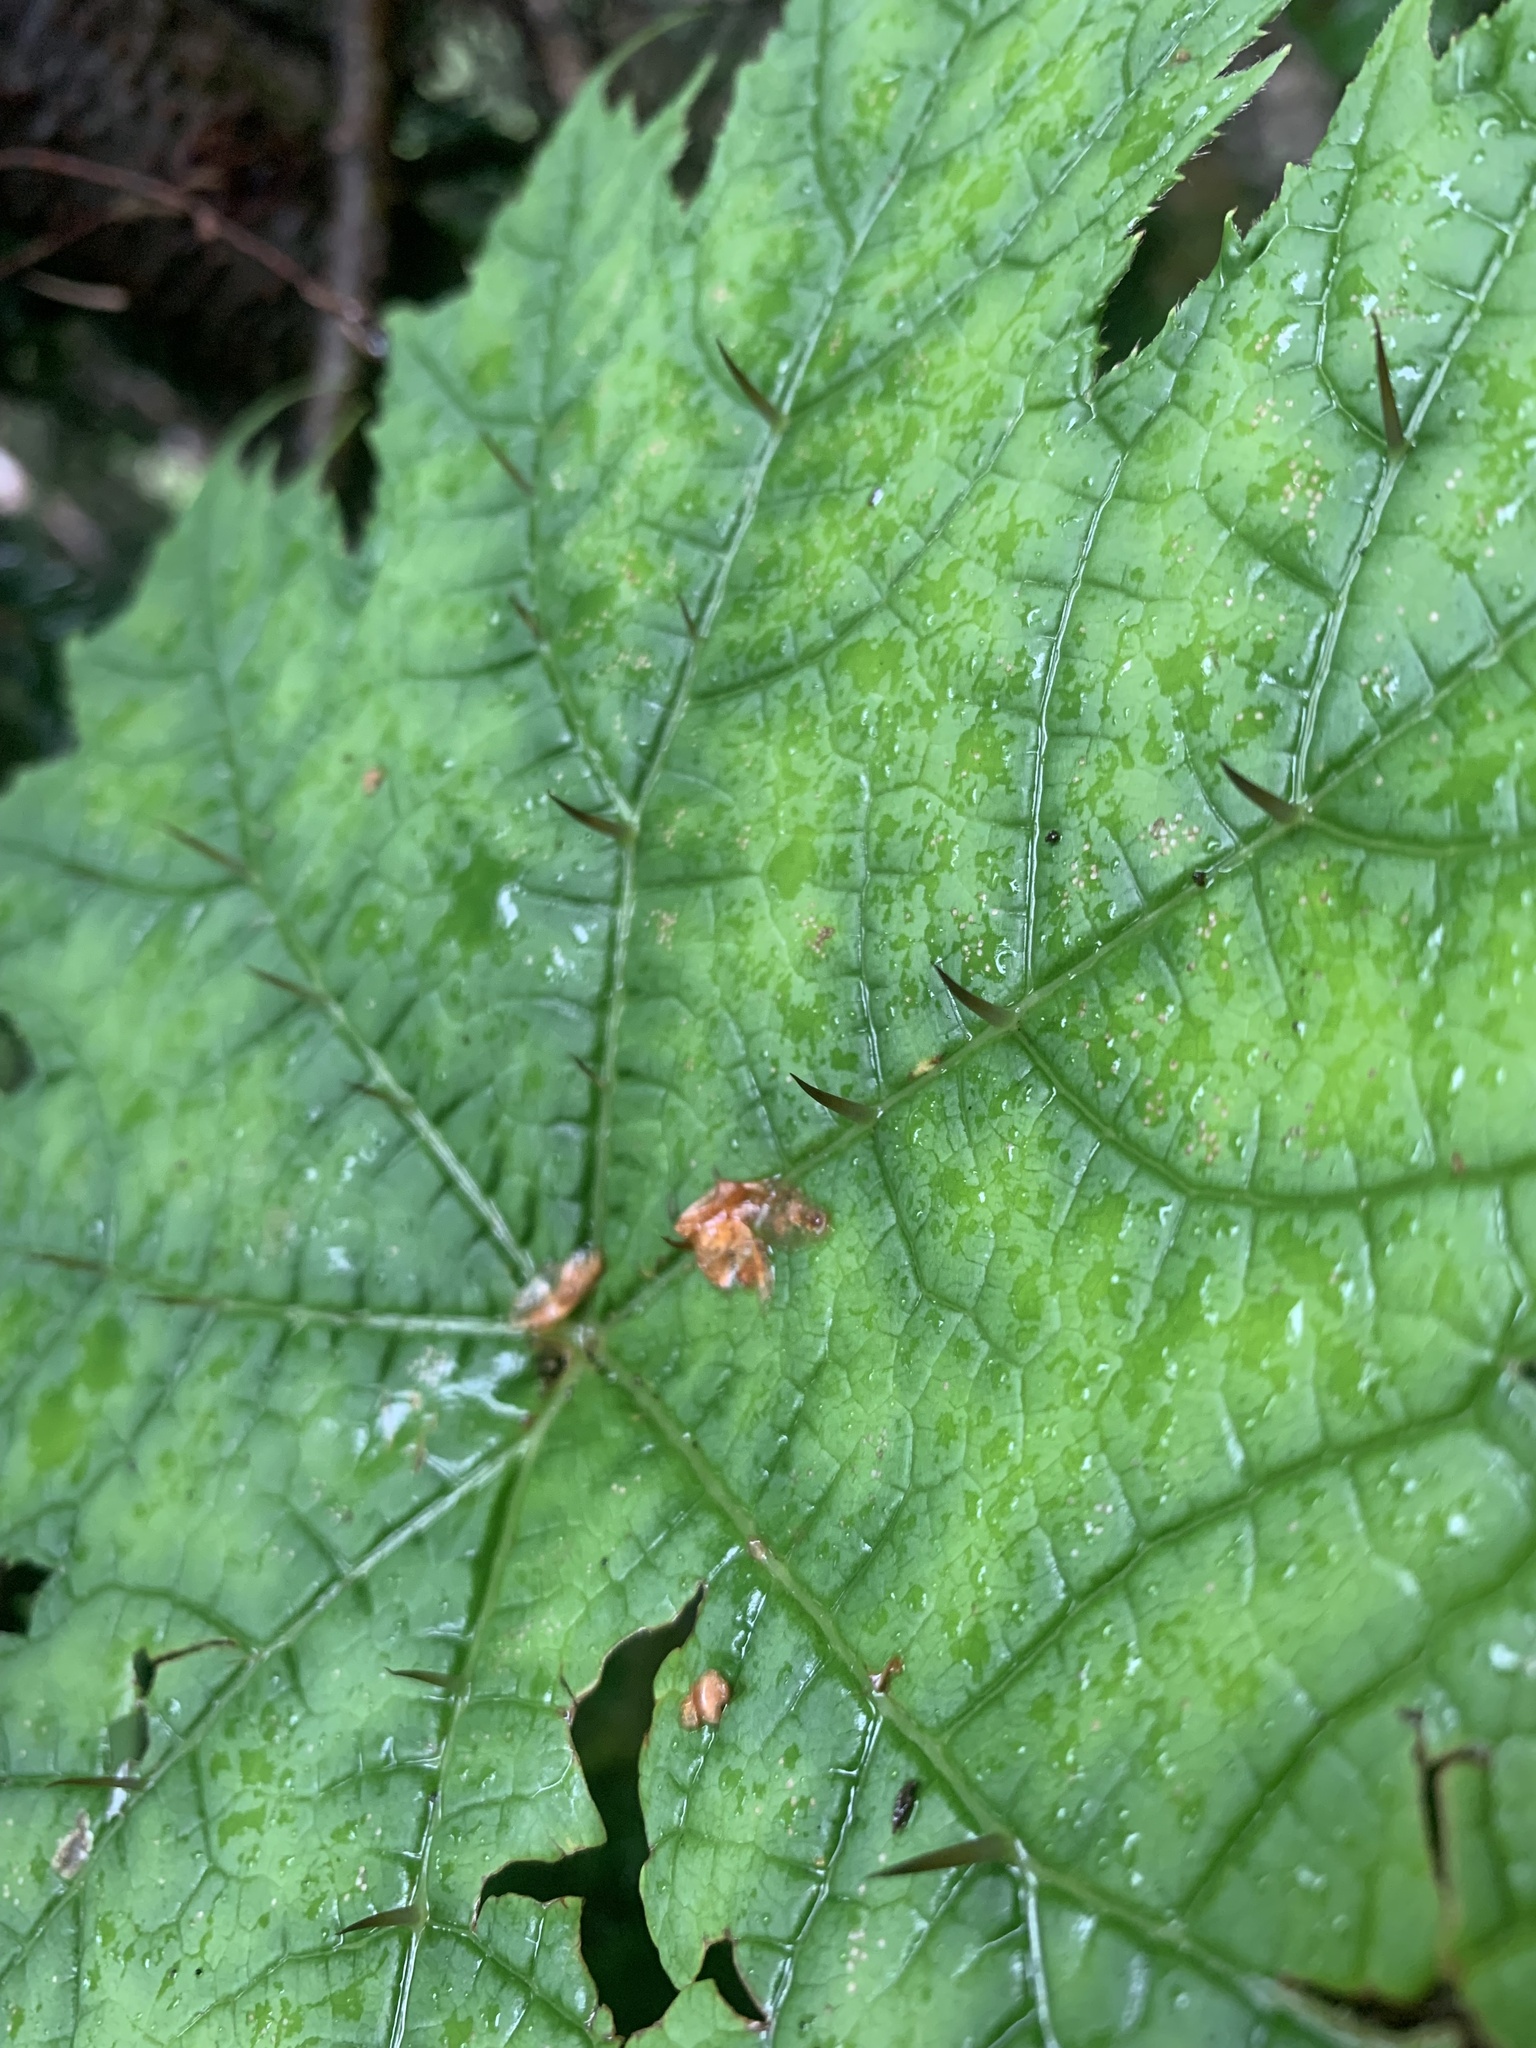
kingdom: Plantae
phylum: Tracheophyta
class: Magnoliopsida
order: Apiales
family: Araliaceae
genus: Oplopanax
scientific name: Oplopanax japonicus
